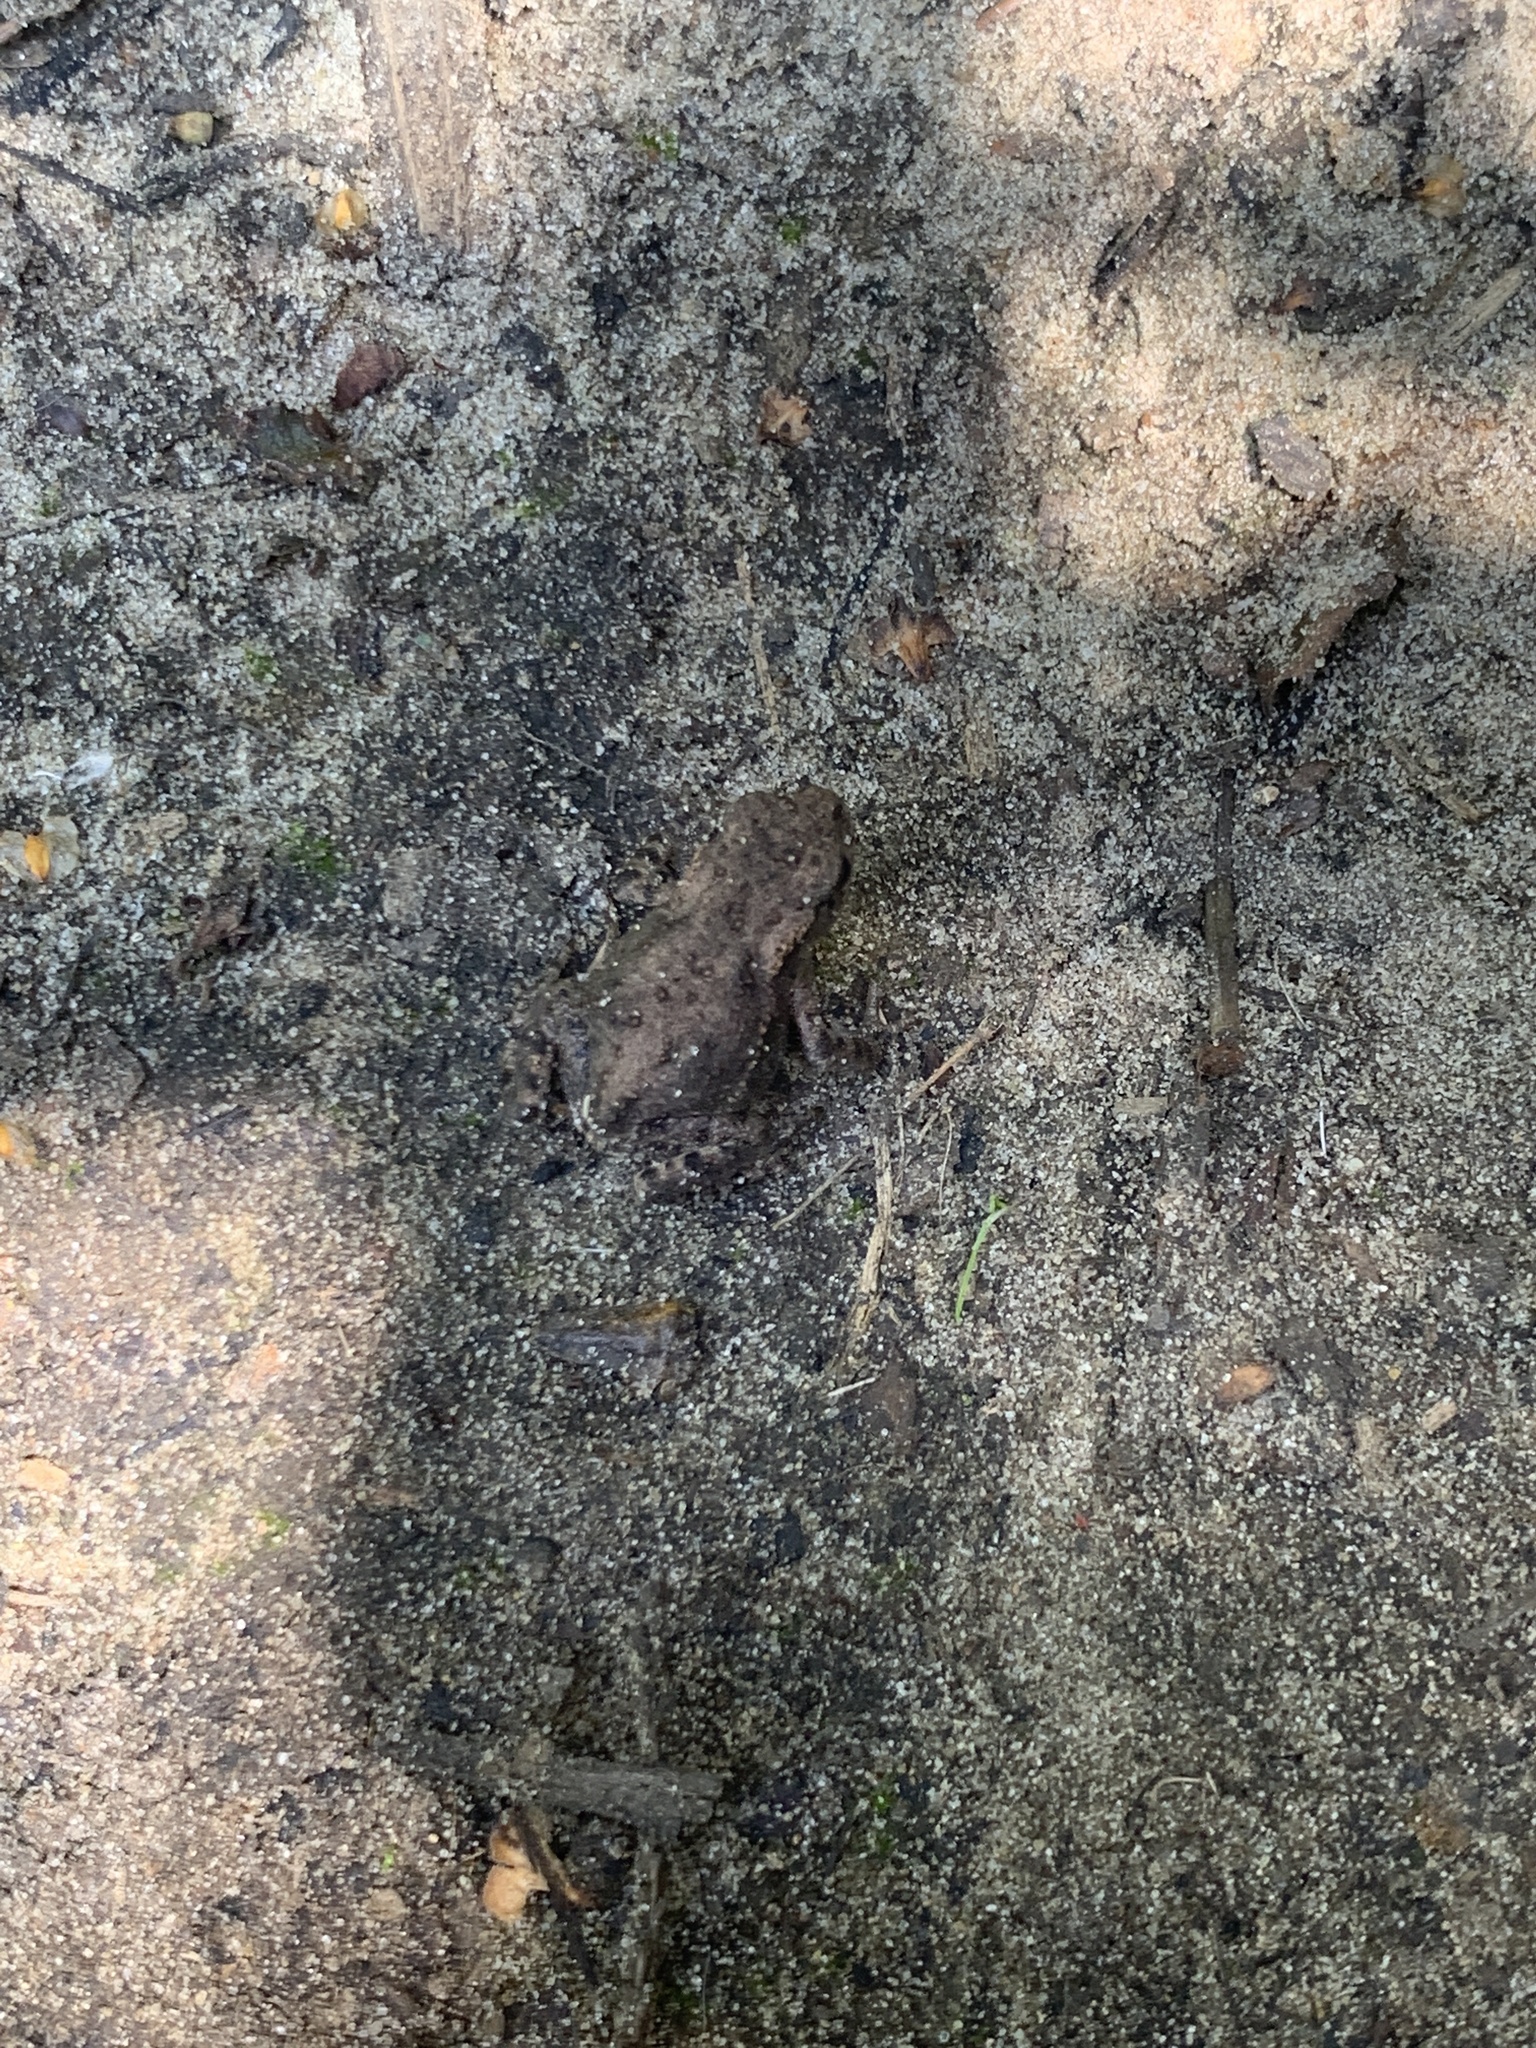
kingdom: Animalia
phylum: Chordata
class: Amphibia
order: Anura
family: Bufonidae
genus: Bufo
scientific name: Bufo bufo
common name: Common toad
